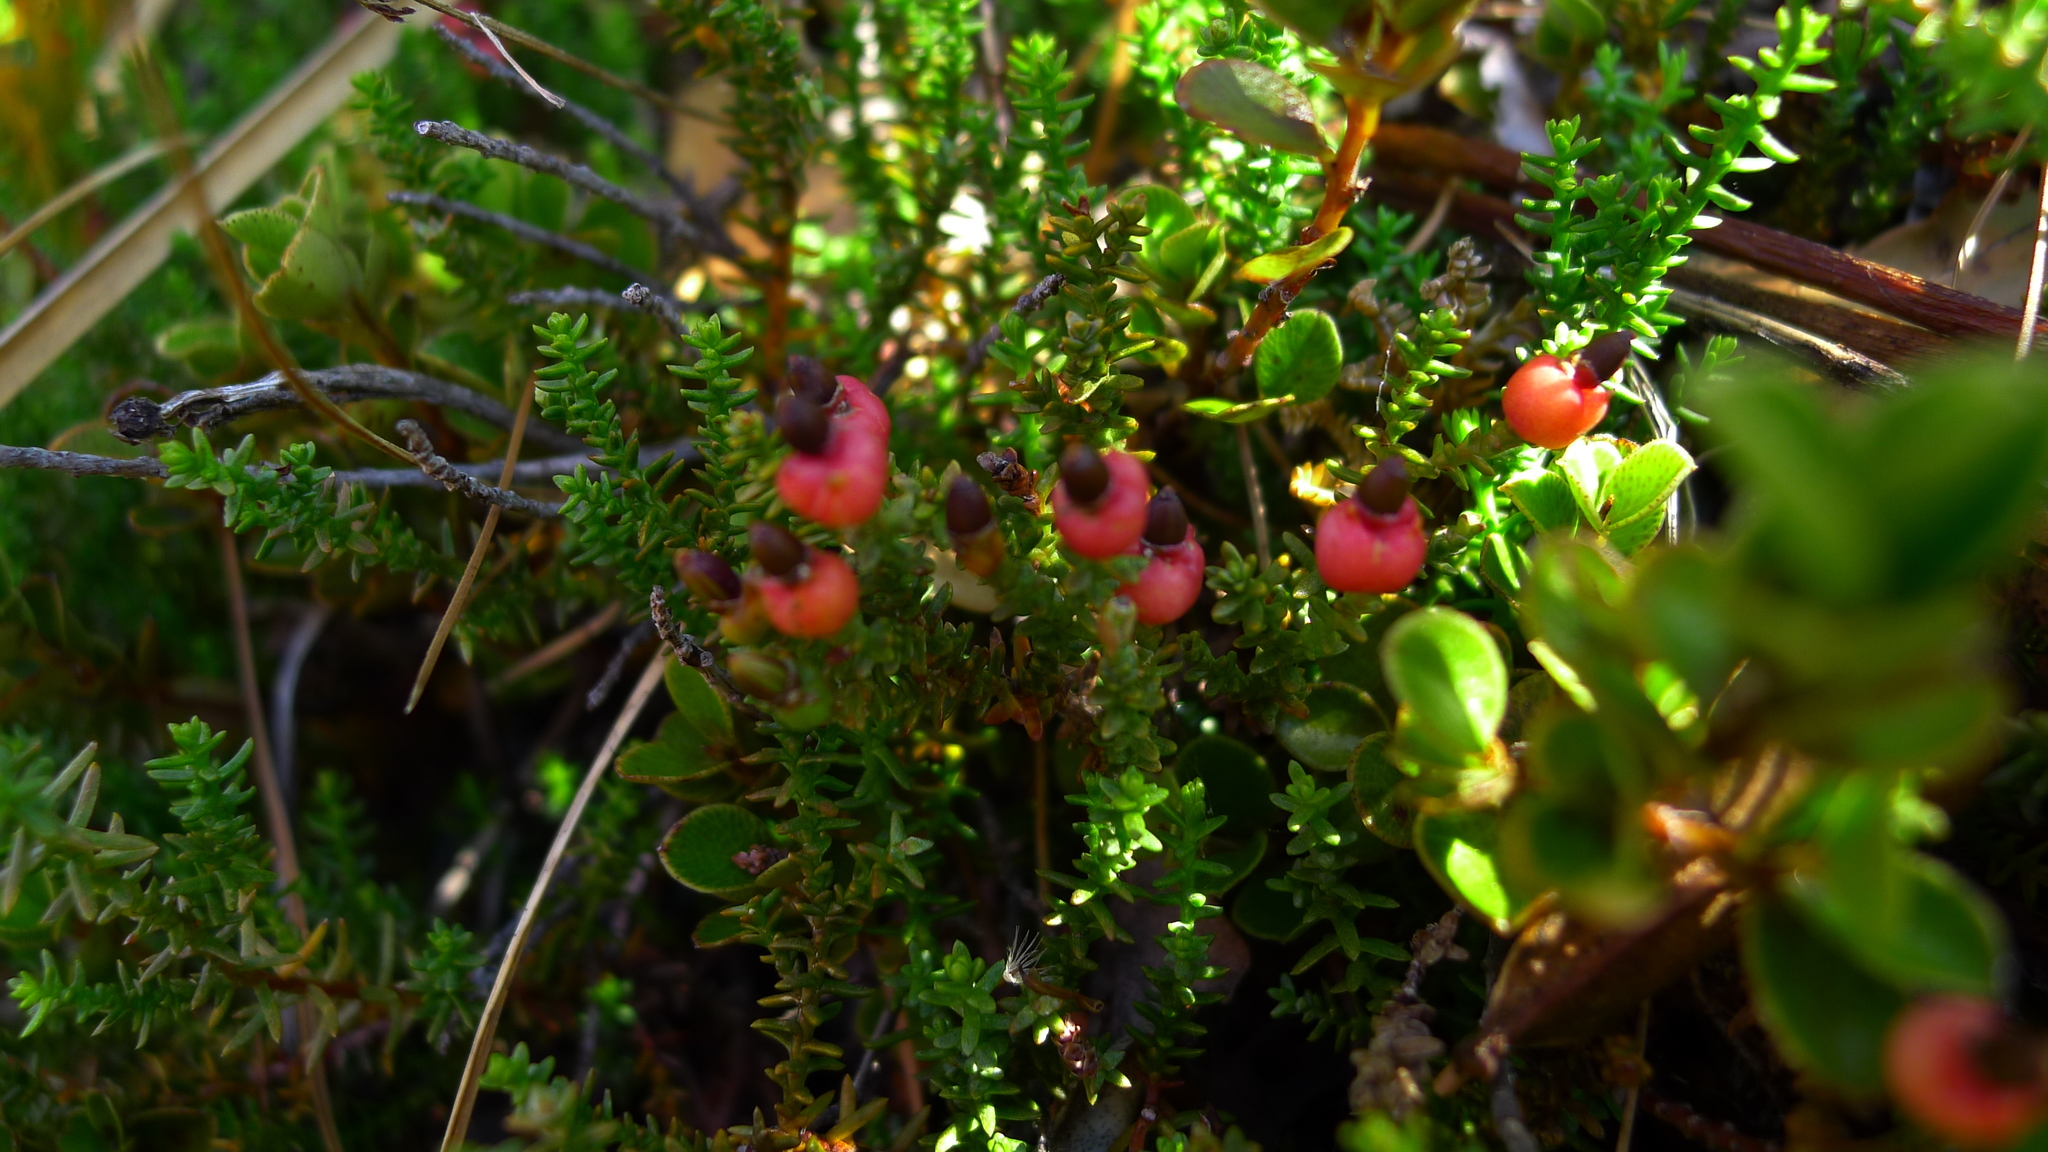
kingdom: Plantae
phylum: Tracheophyta
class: Pinopsida
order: Pinales
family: Podocarpaceae
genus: Lepidothamnus
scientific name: Lepidothamnus laxifolius
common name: Pygmy pine
